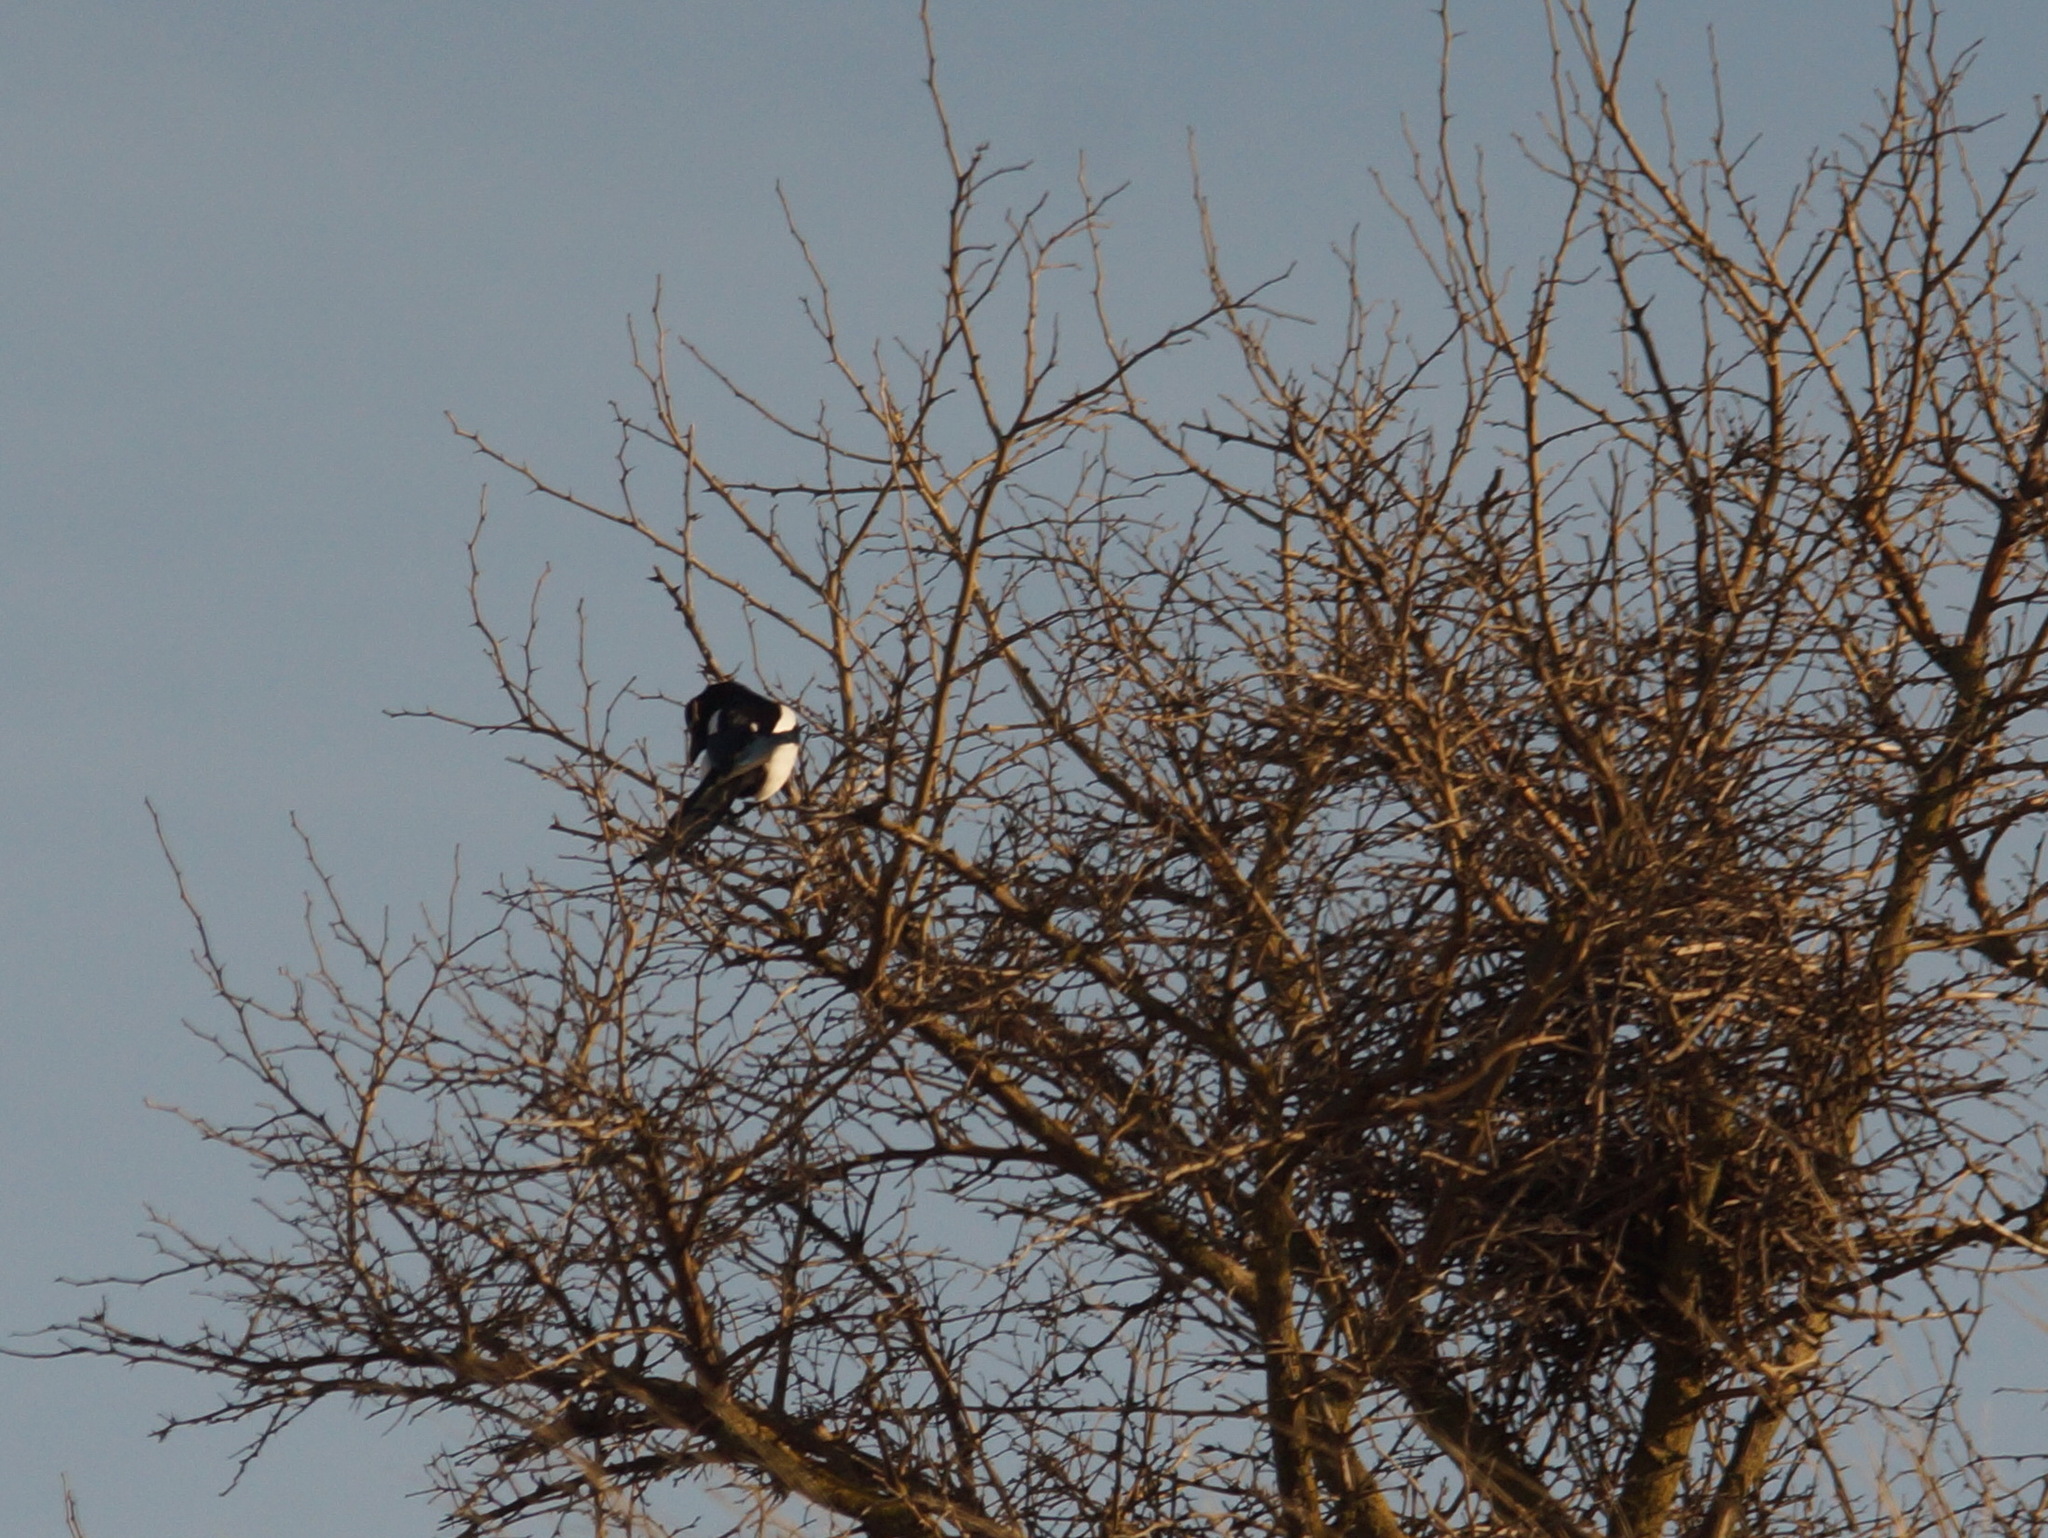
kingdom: Animalia
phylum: Chordata
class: Aves
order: Passeriformes
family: Corvidae
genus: Pica
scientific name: Pica pica
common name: Eurasian magpie
